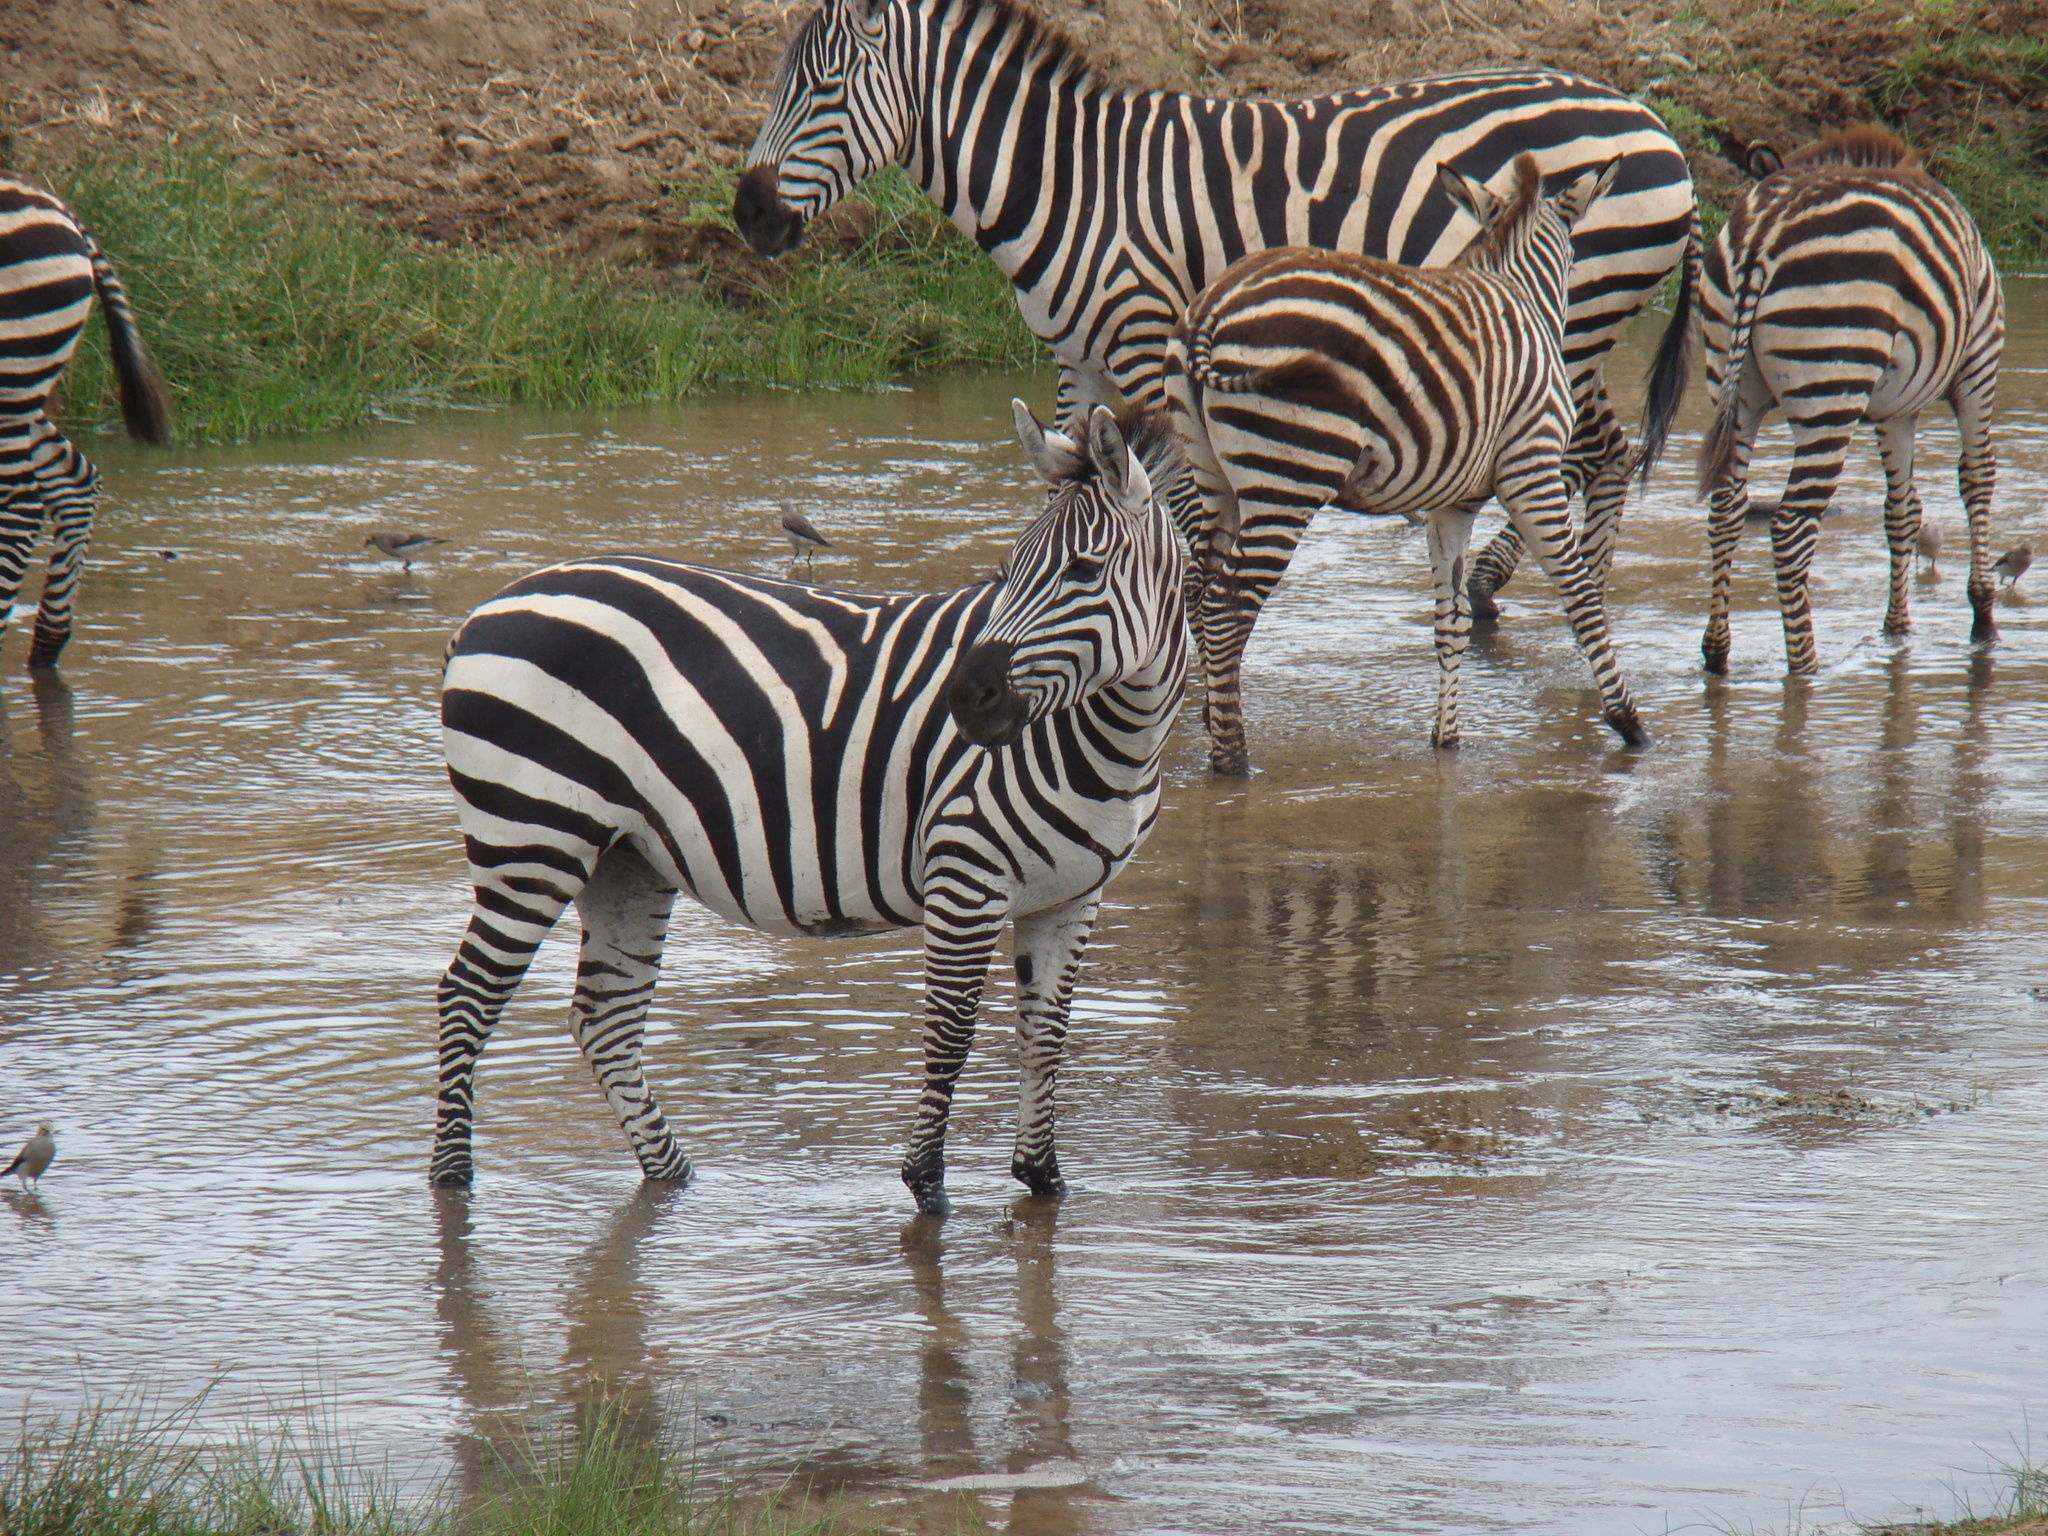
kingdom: Animalia
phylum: Chordata
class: Mammalia
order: Perissodactyla
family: Equidae
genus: Equus
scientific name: Equus quagga
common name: Plains zebra
